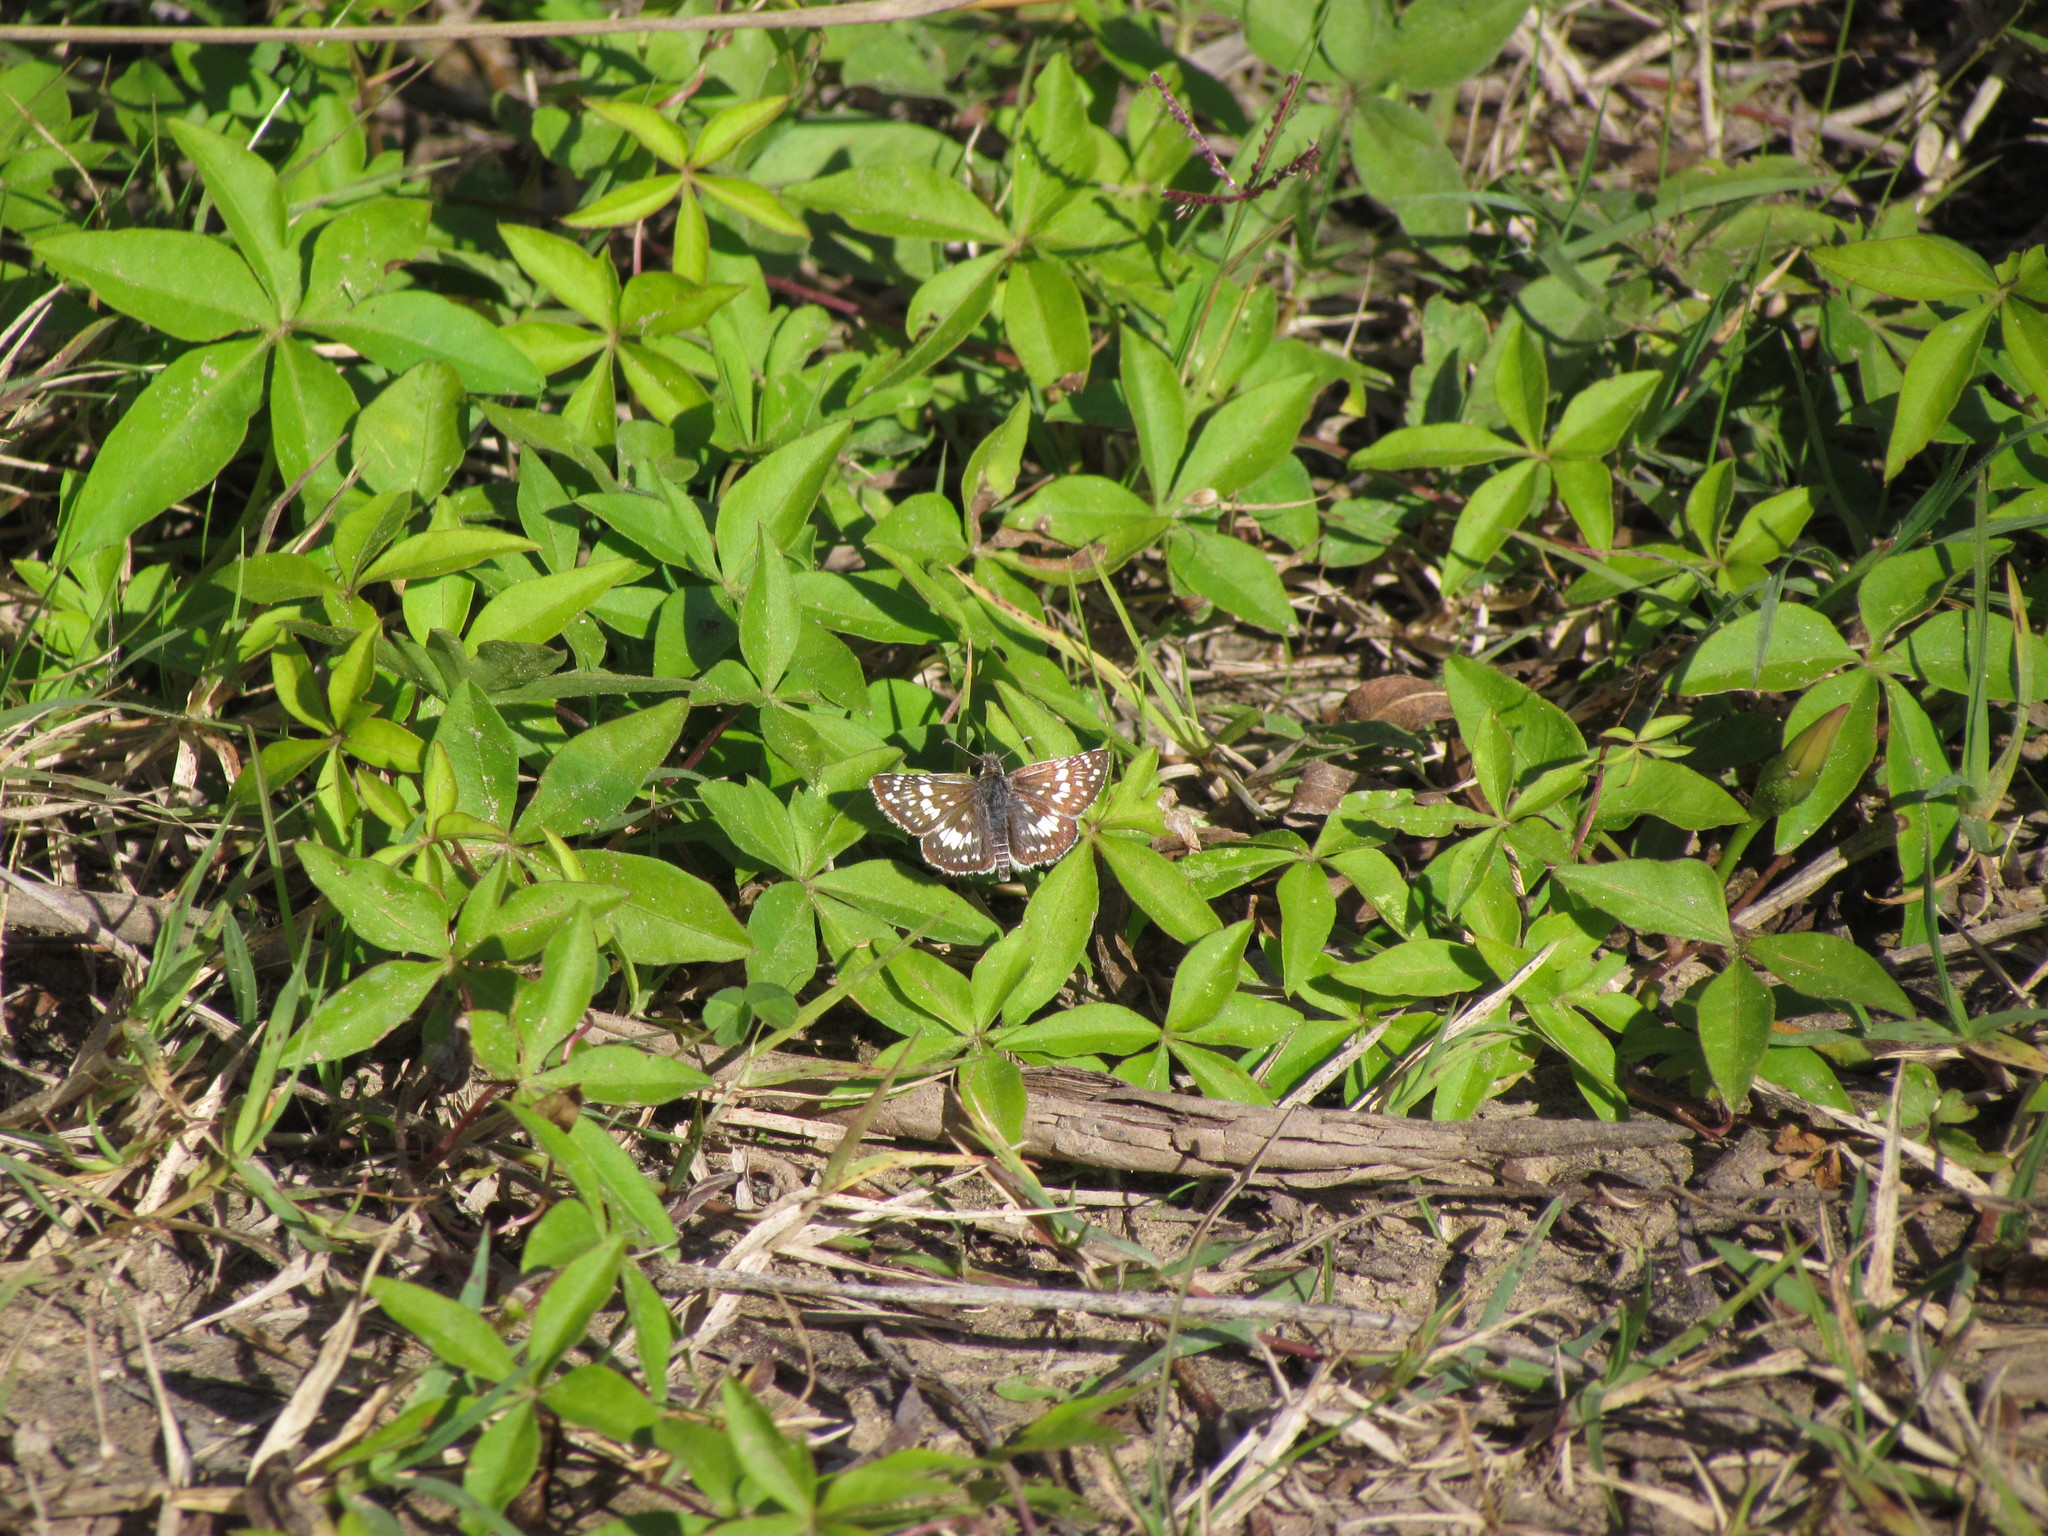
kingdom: Animalia
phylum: Arthropoda
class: Insecta
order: Lepidoptera
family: Hesperiidae
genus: Burnsius
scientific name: Burnsius orcynoides
